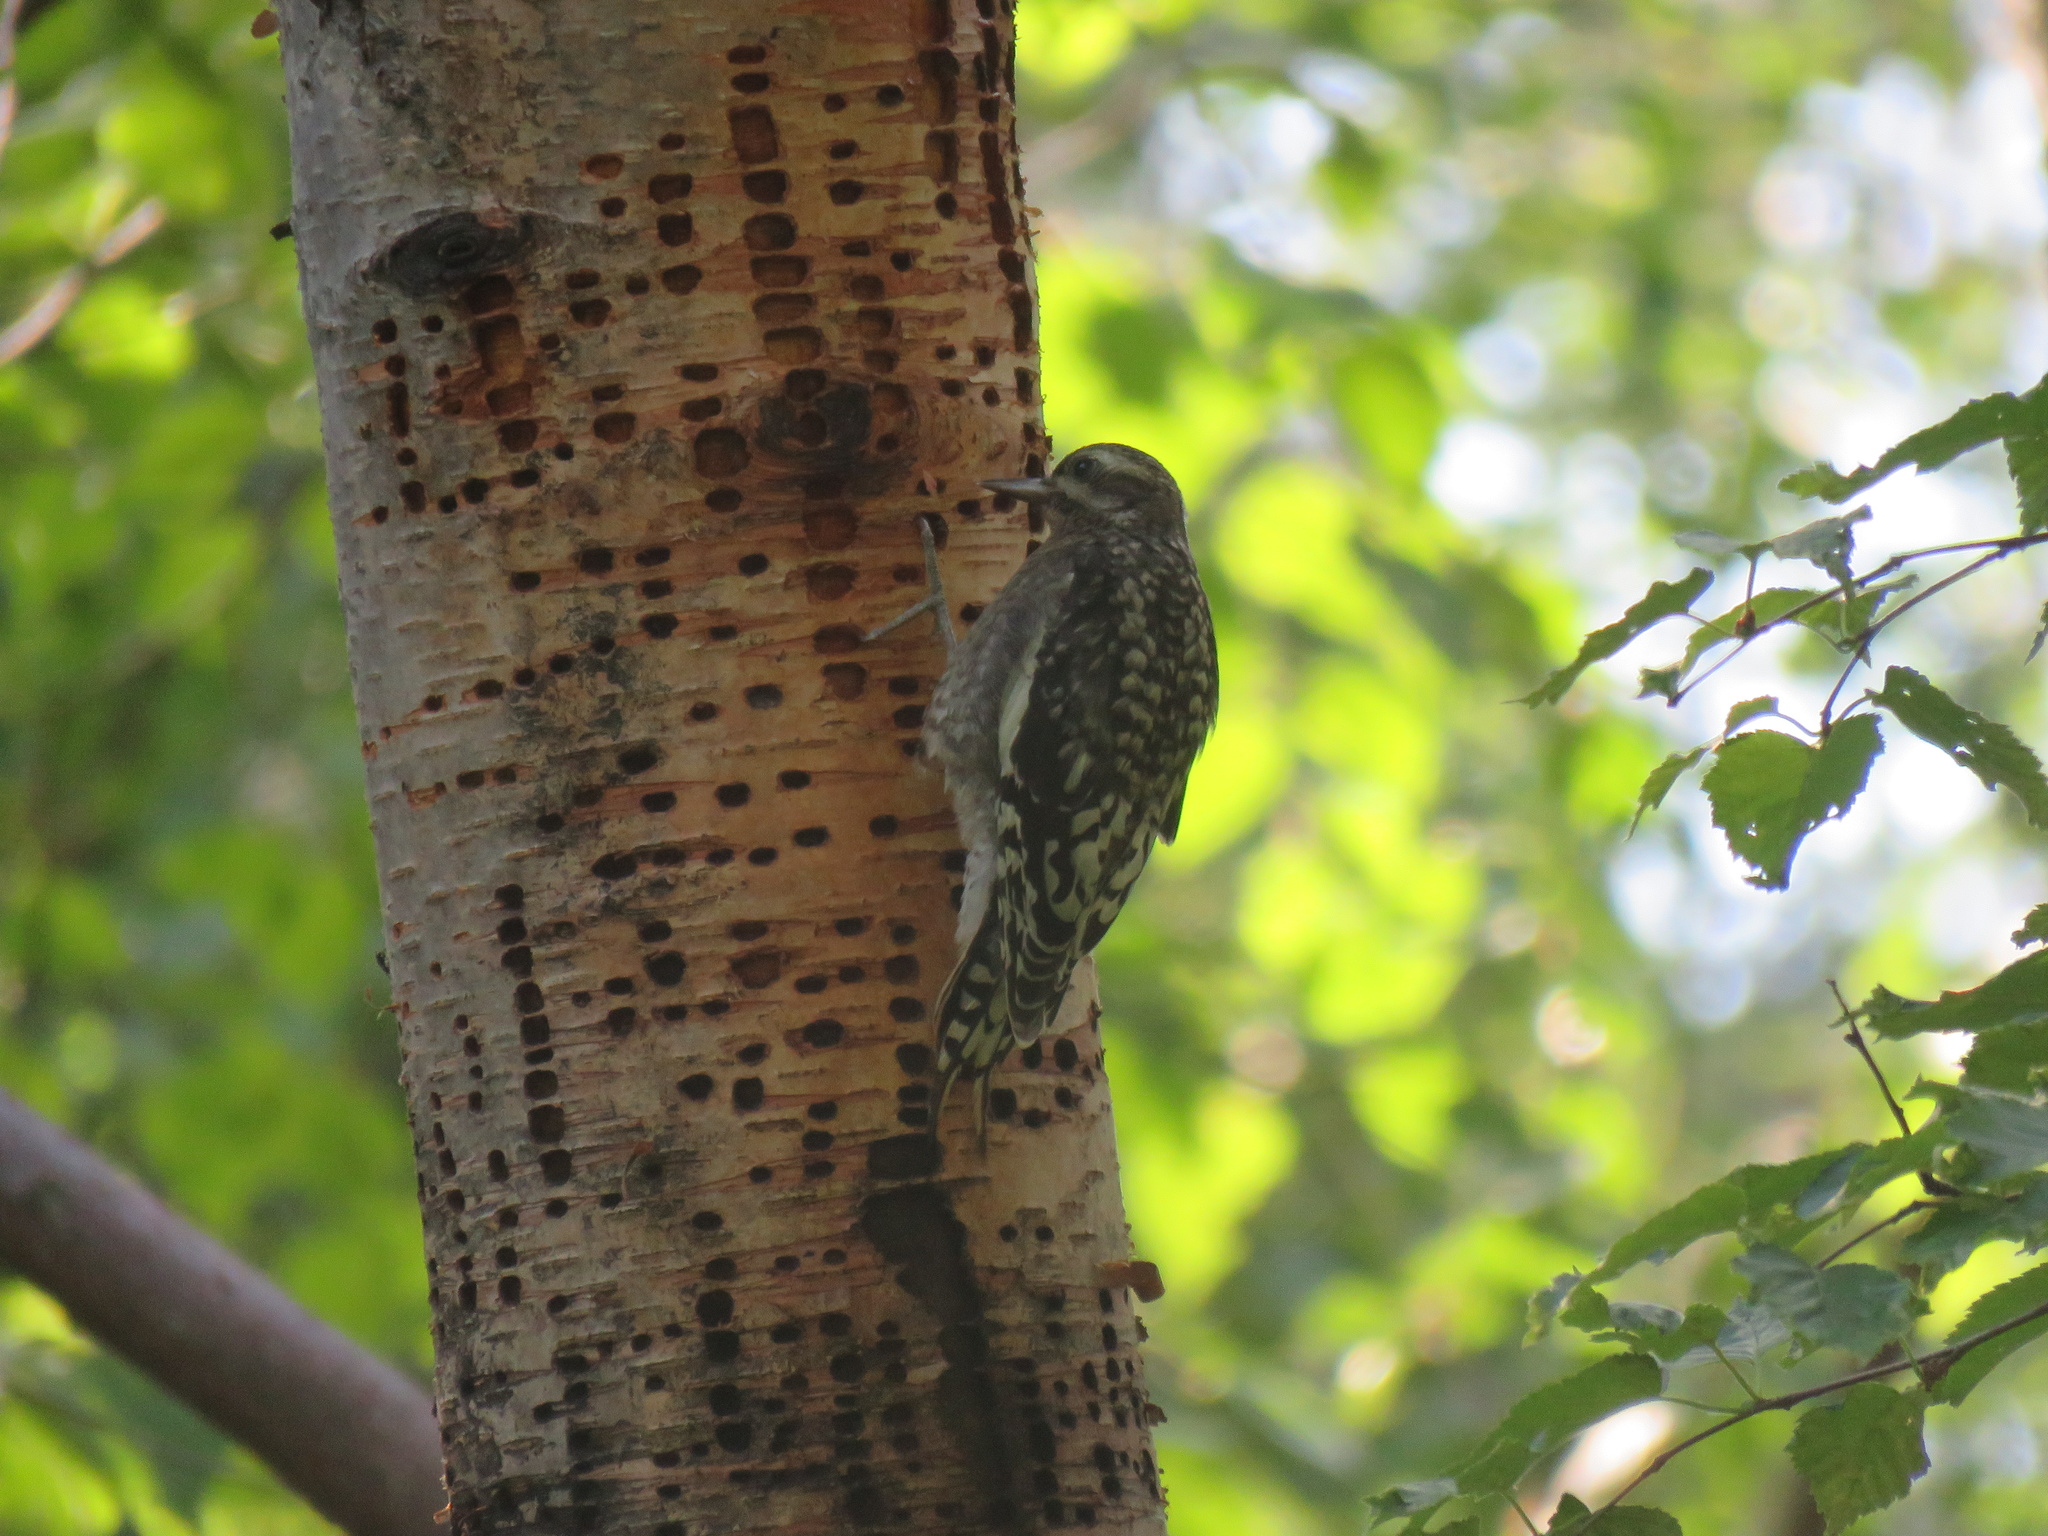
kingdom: Animalia
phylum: Chordata
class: Aves
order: Piciformes
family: Picidae
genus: Sphyrapicus
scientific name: Sphyrapicus varius
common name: Yellow-bellied sapsucker
